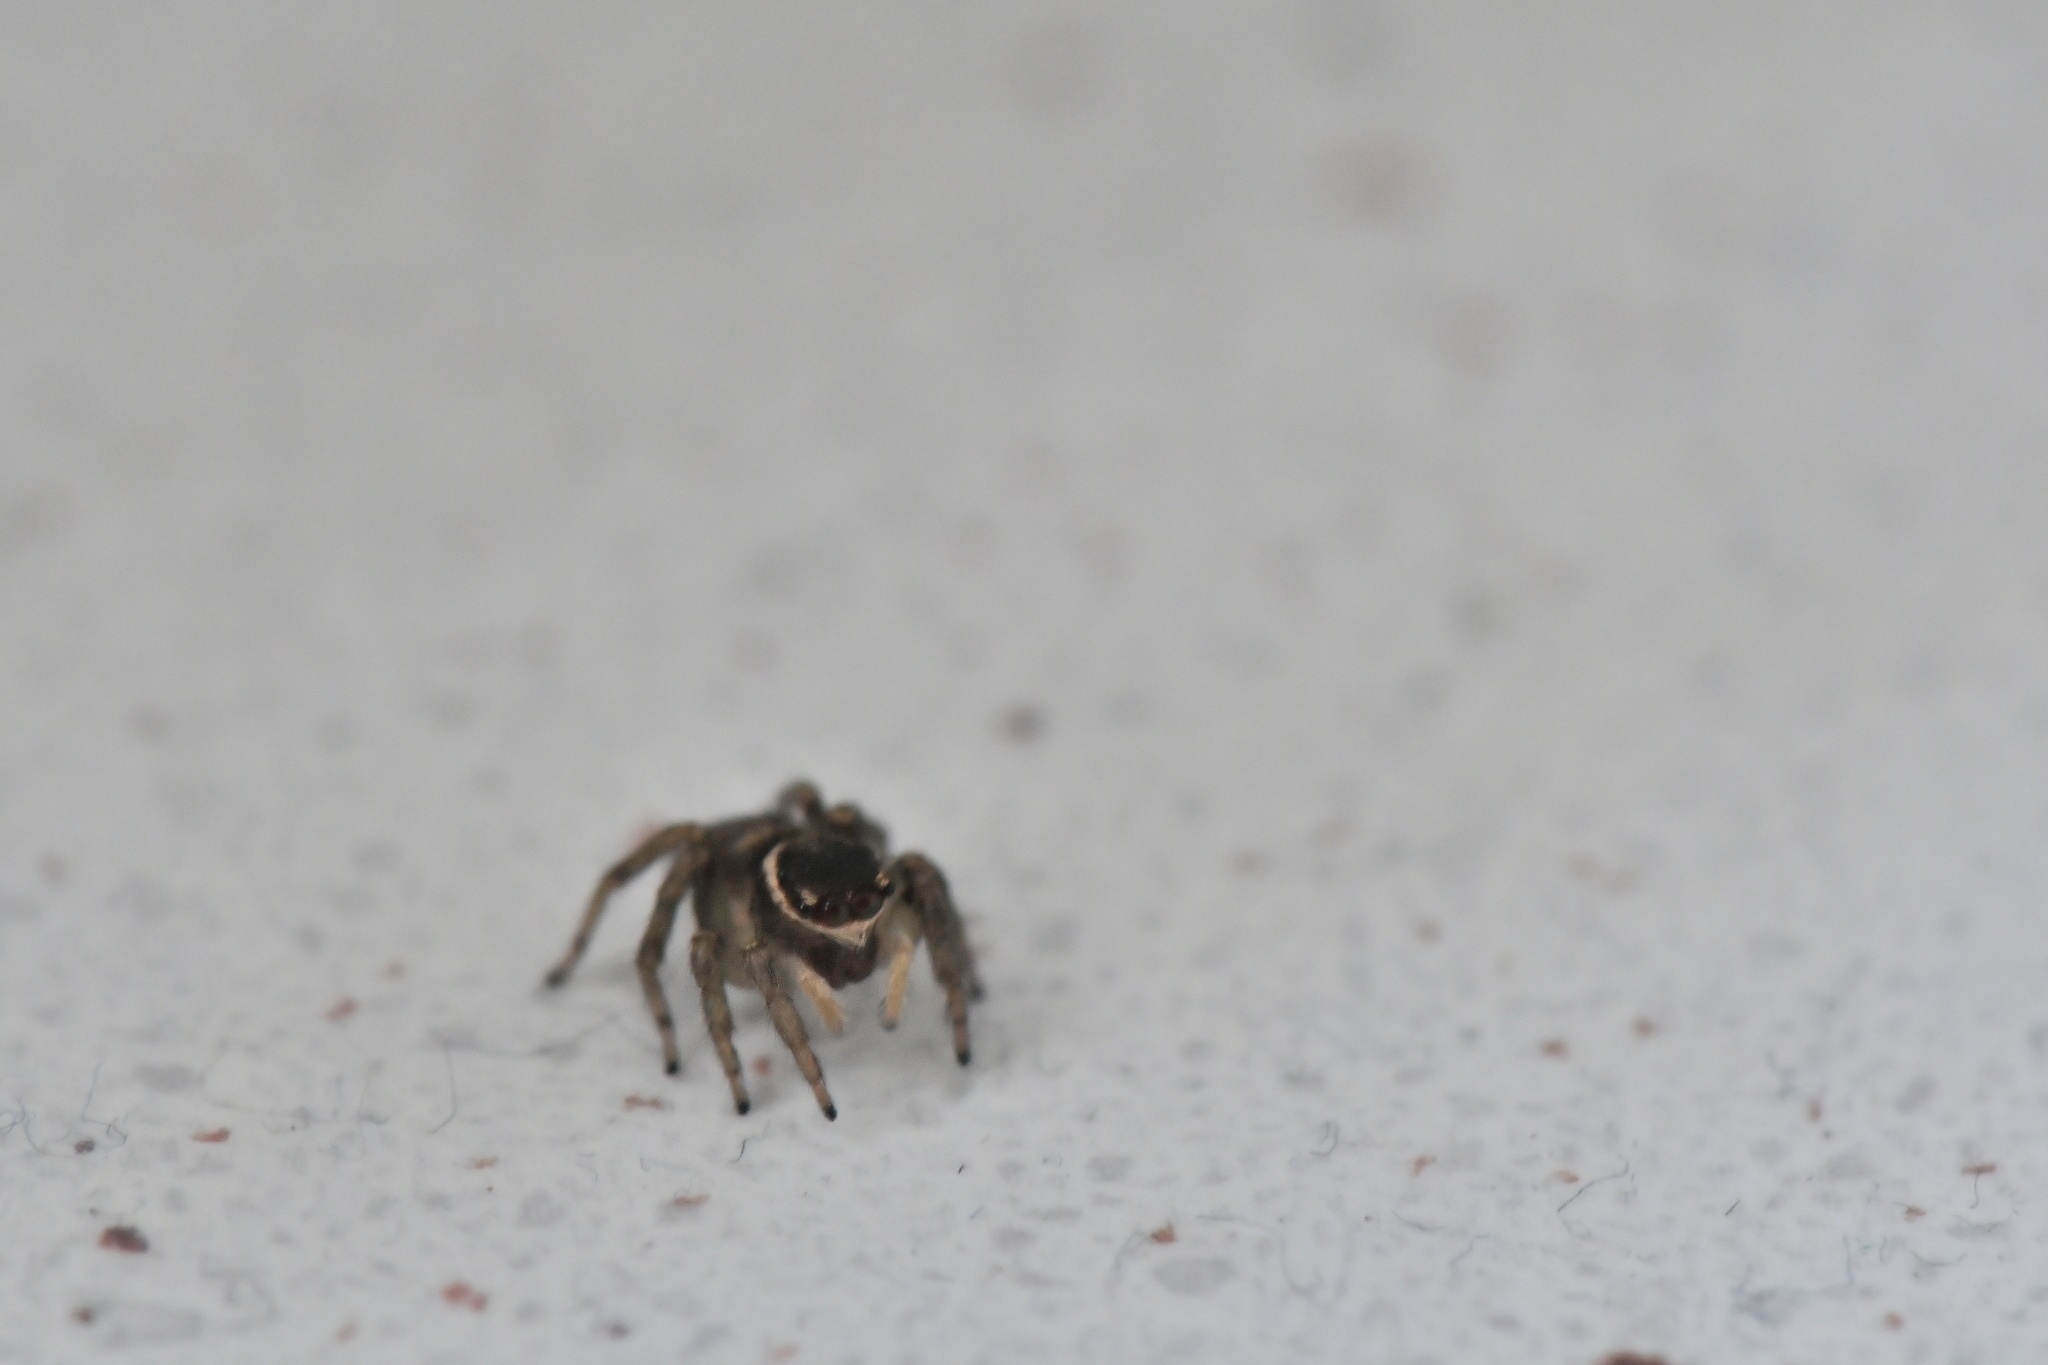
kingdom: Animalia
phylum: Arthropoda
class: Arachnida
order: Araneae
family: Salticidae
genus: Maratus
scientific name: Maratus griseus
